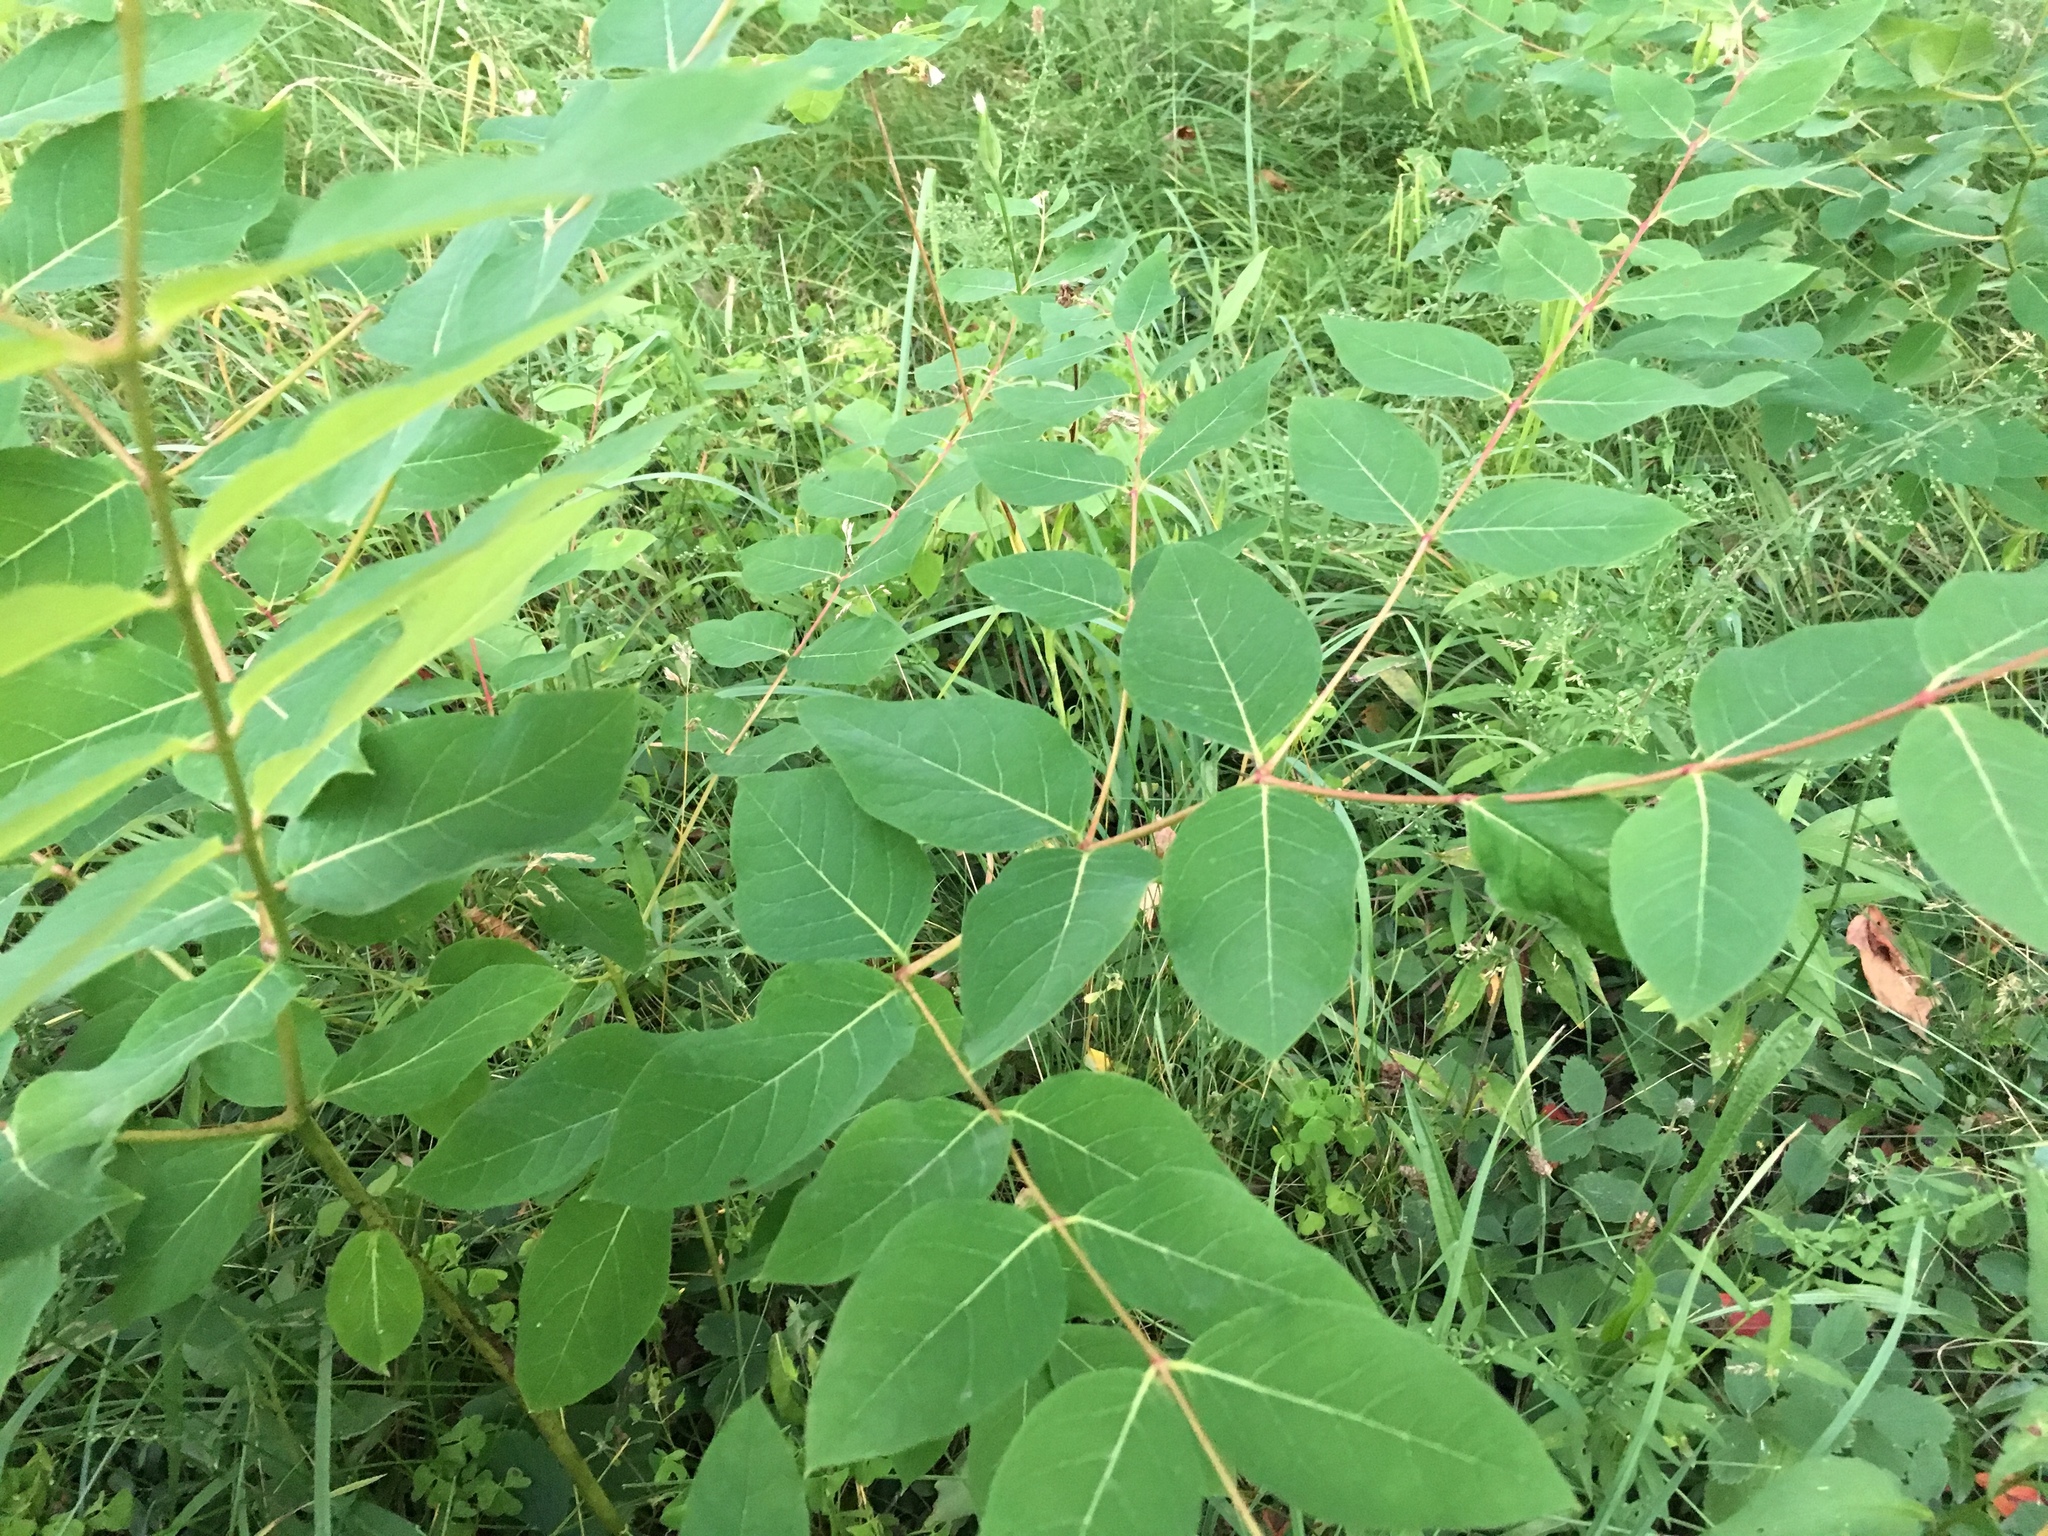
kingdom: Plantae
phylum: Tracheophyta
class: Magnoliopsida
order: Gentianales
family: Apocynaceae
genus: Apocynum
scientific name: Apocynum androsaemifolium
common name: Spreading dogbane
